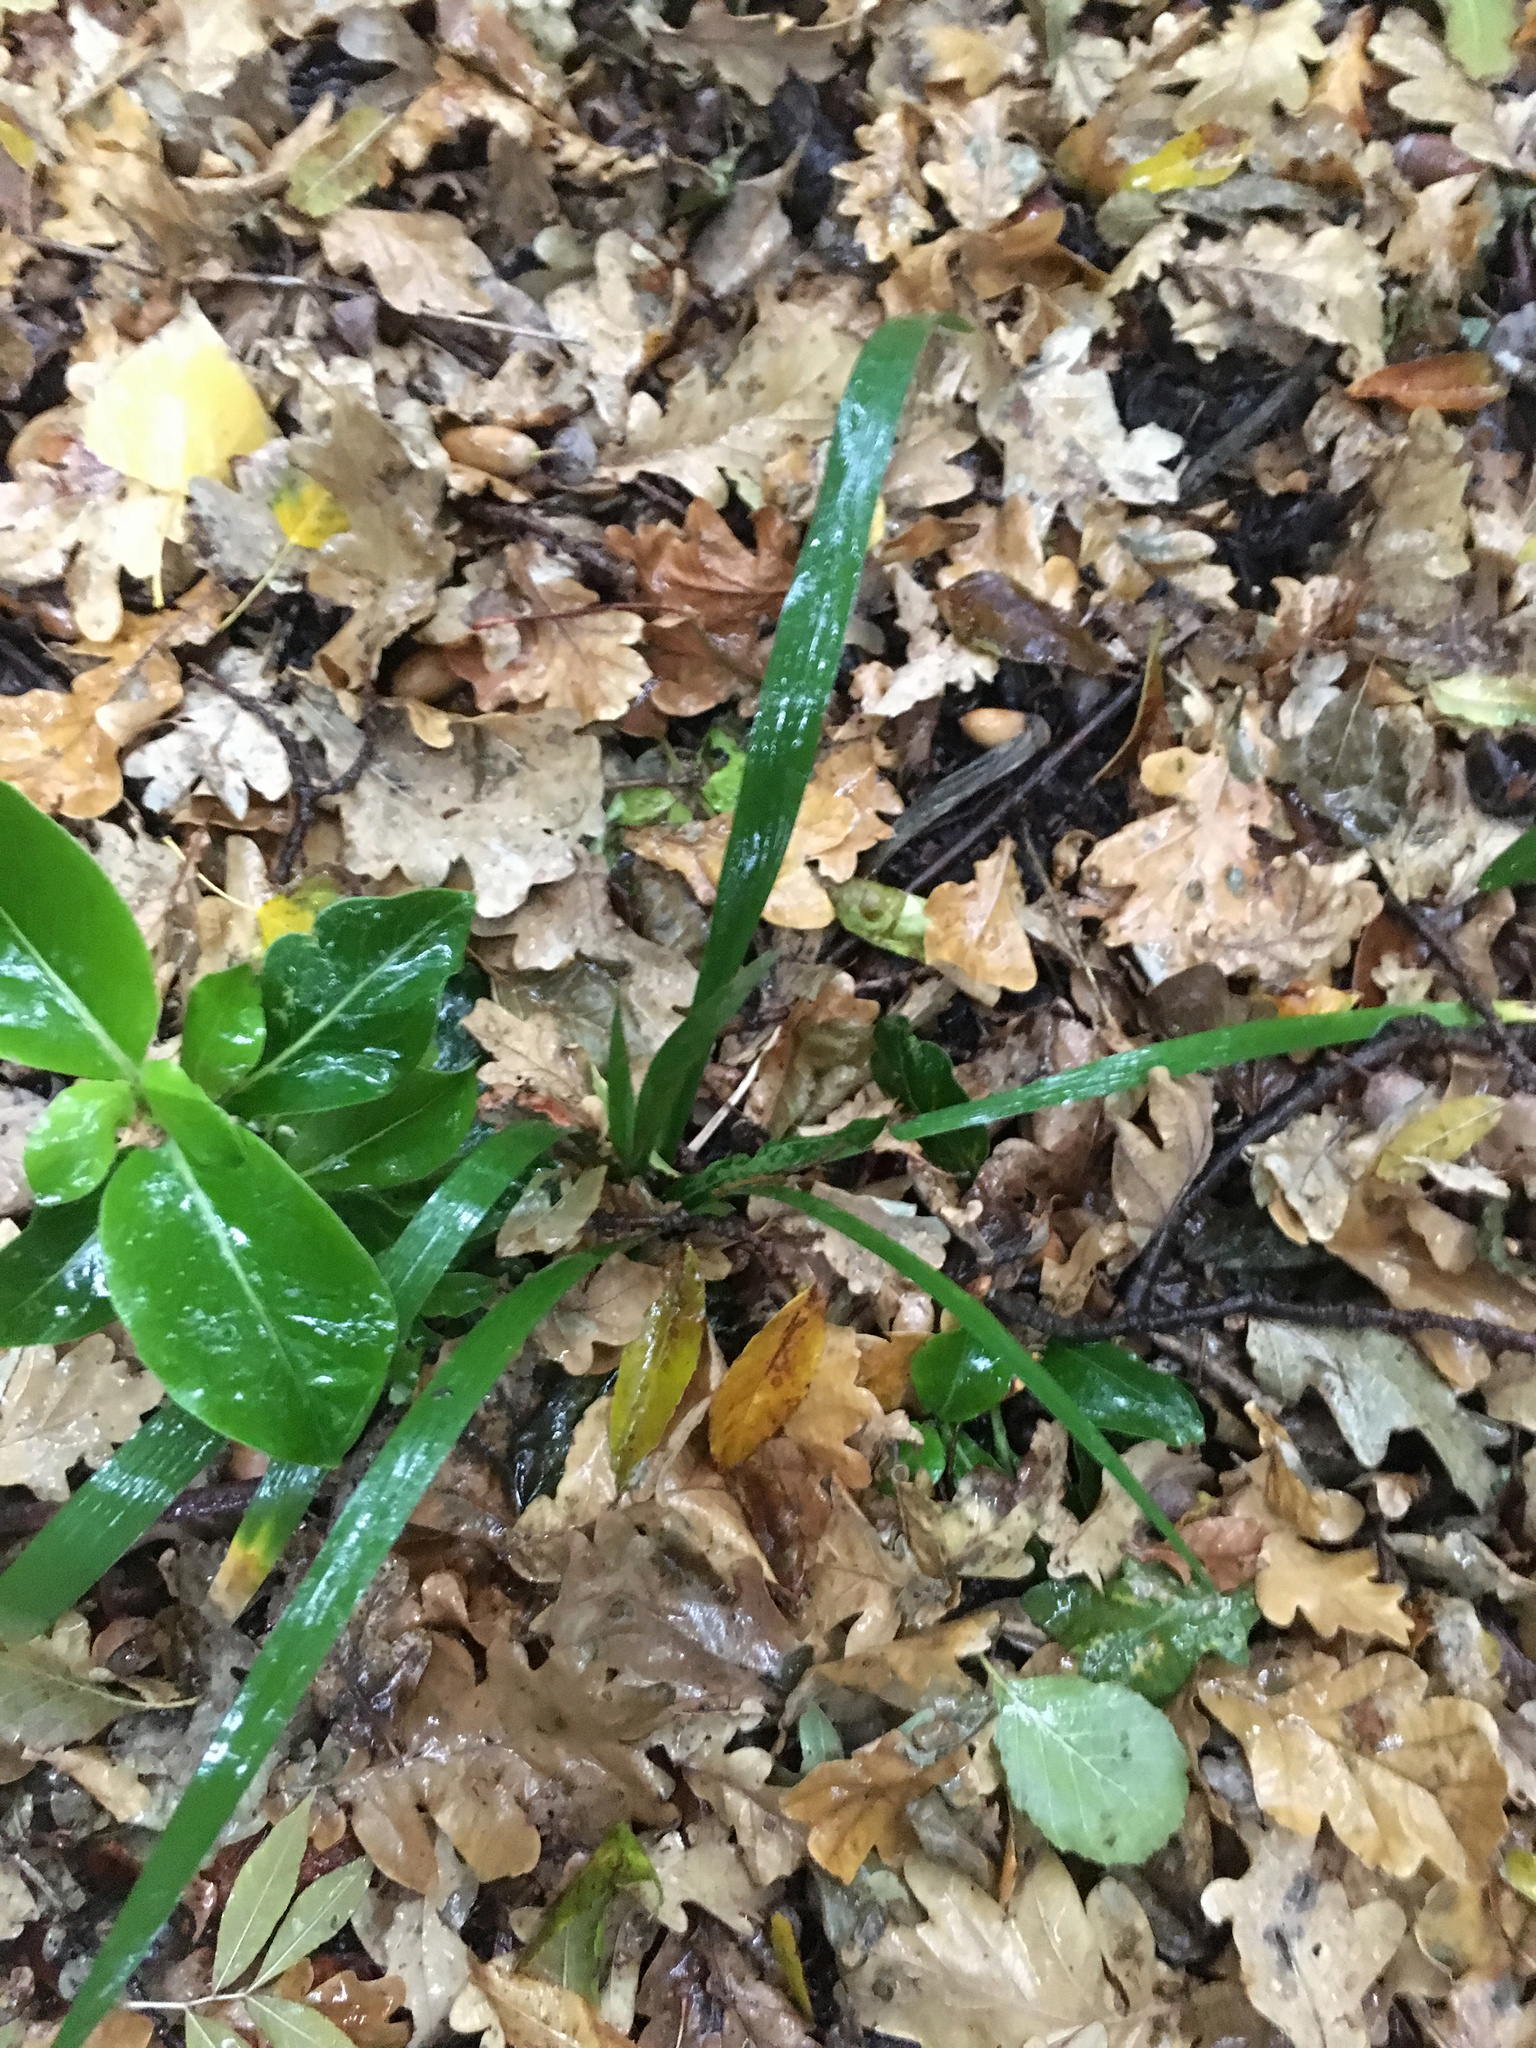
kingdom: Plantae
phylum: Tracheophyta
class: Liliopsida
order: Asparagales
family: Iridaceae
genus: Iris
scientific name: Iris foetidissima
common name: Stinking iris
